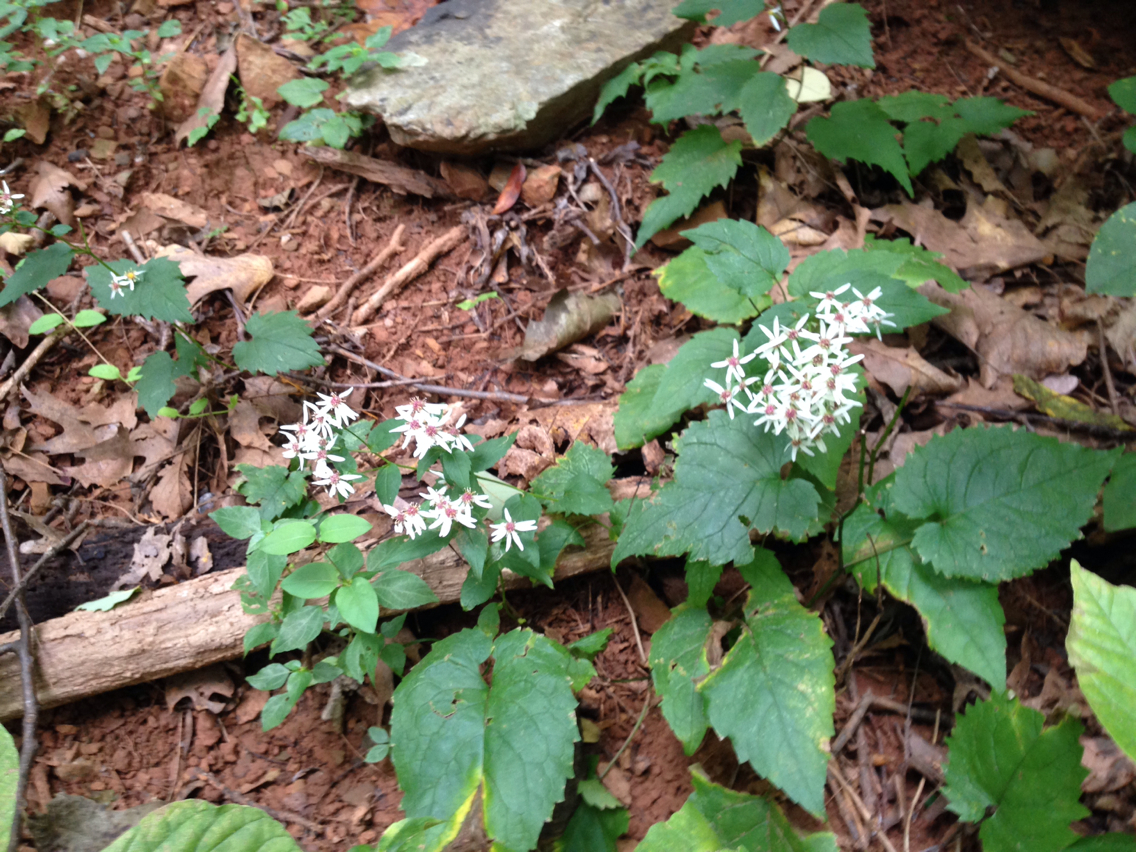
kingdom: Plantae
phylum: Tracheophyta
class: Magnoliopsida
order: Asterales
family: Asteraceae
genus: Eurybia
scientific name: Eurybia divaricata
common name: White wood aster
